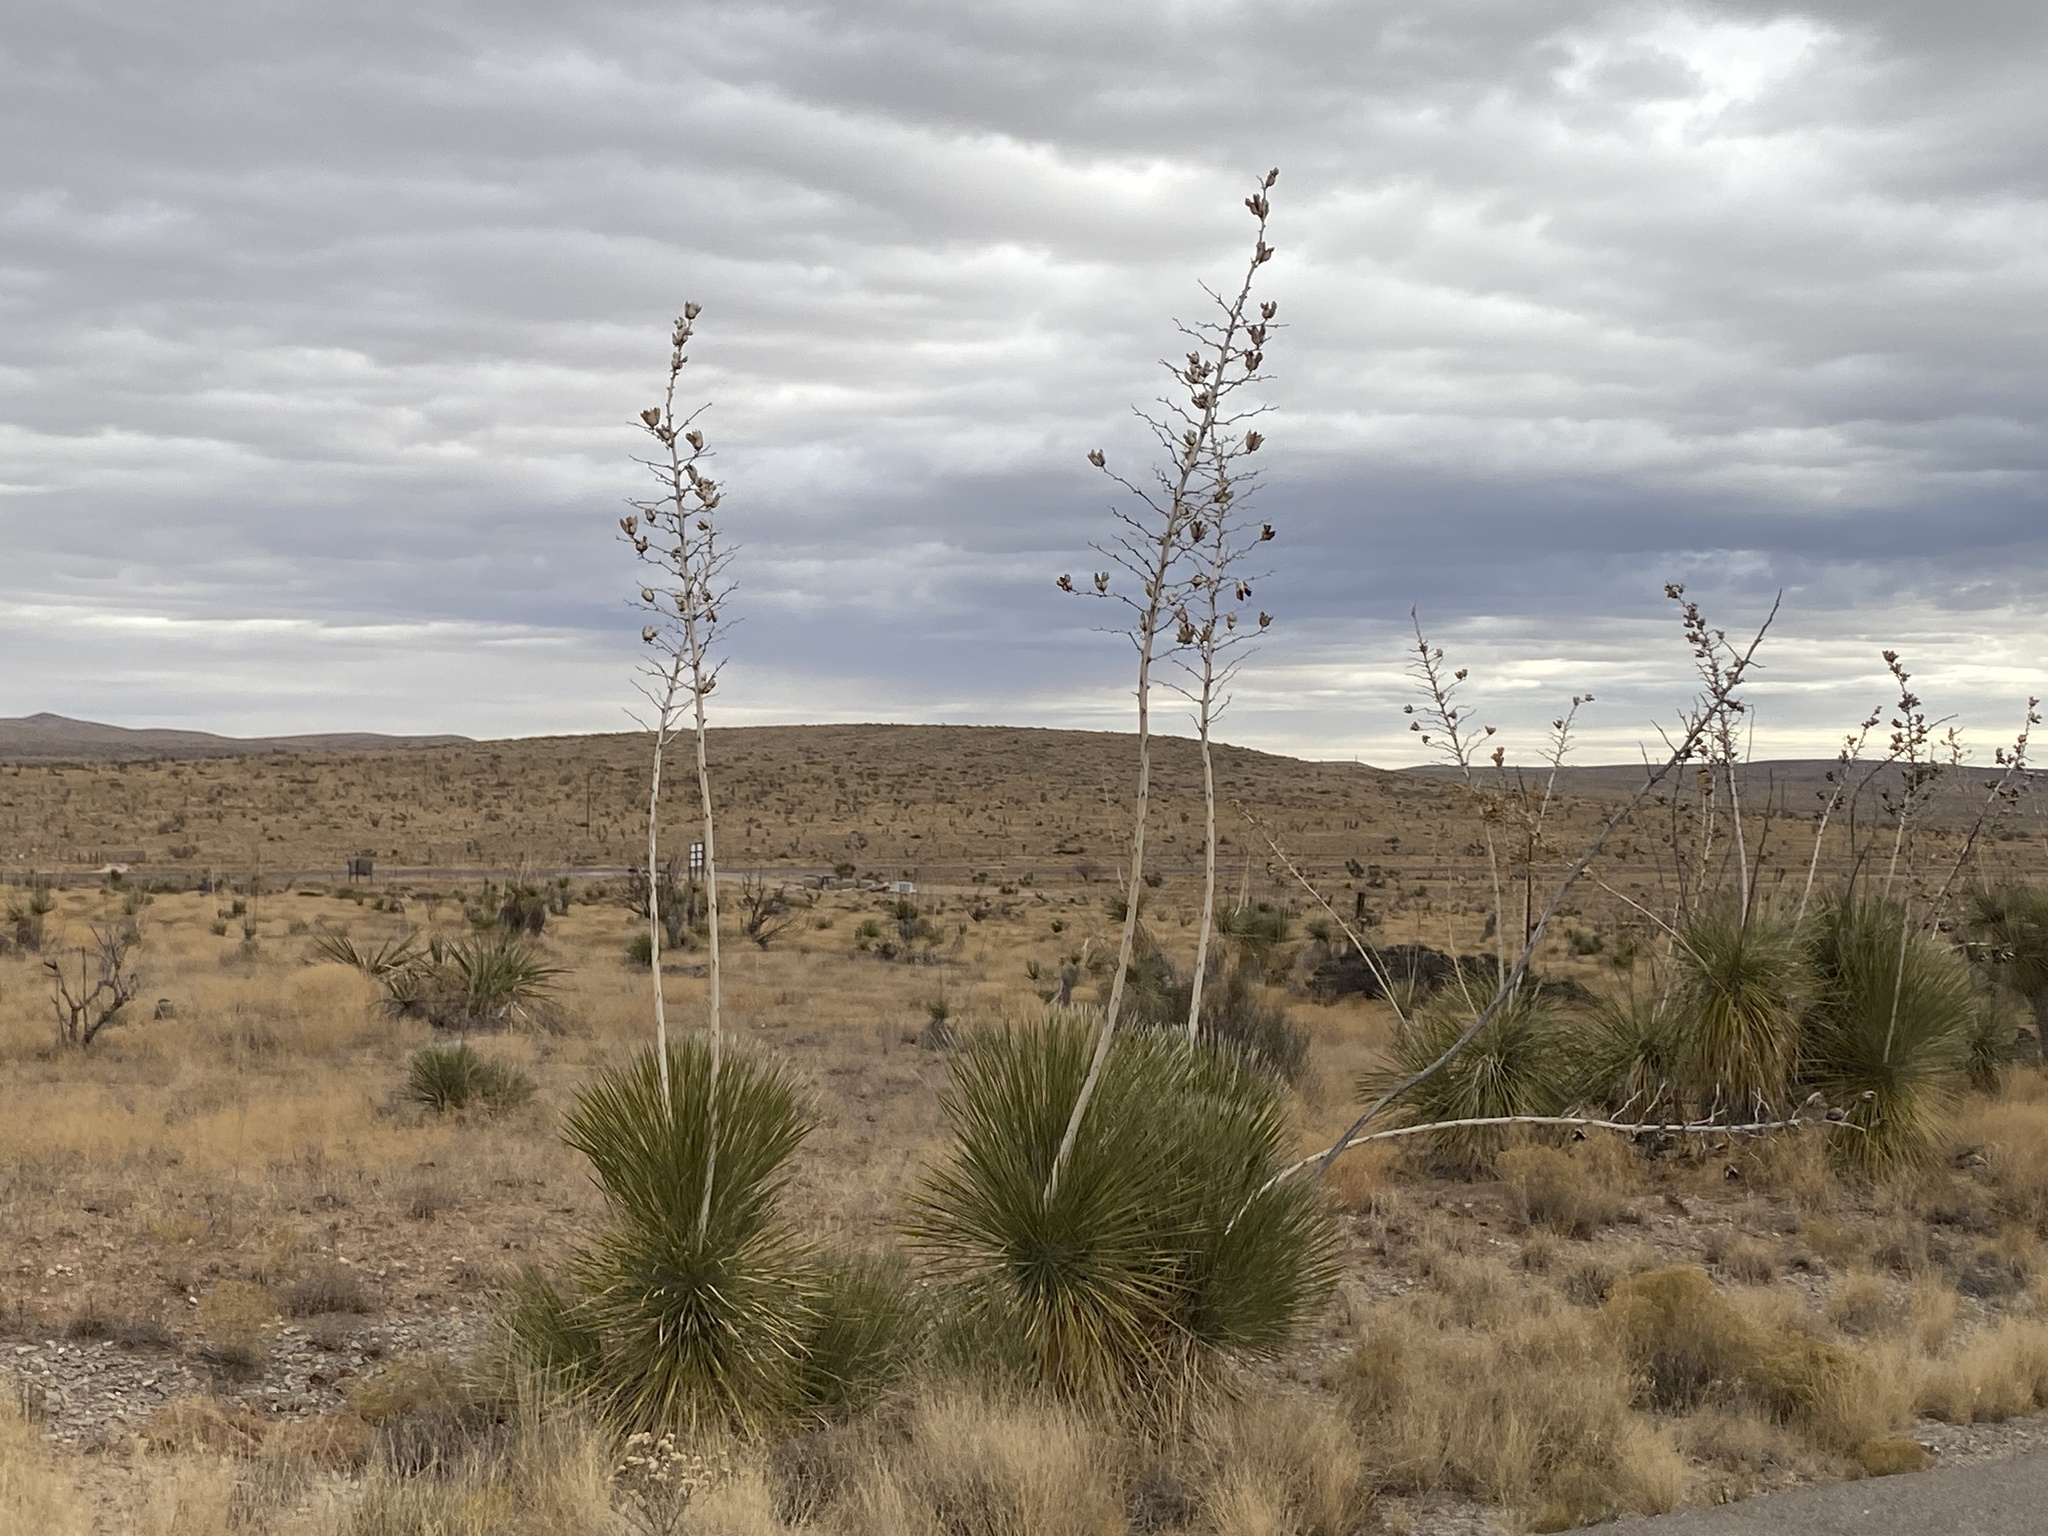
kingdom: Plantae
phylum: Tracheophyta
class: Liliopsida
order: Asparagales
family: Asparagaceae
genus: Yucca
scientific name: Yucca elata
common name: Palmella
